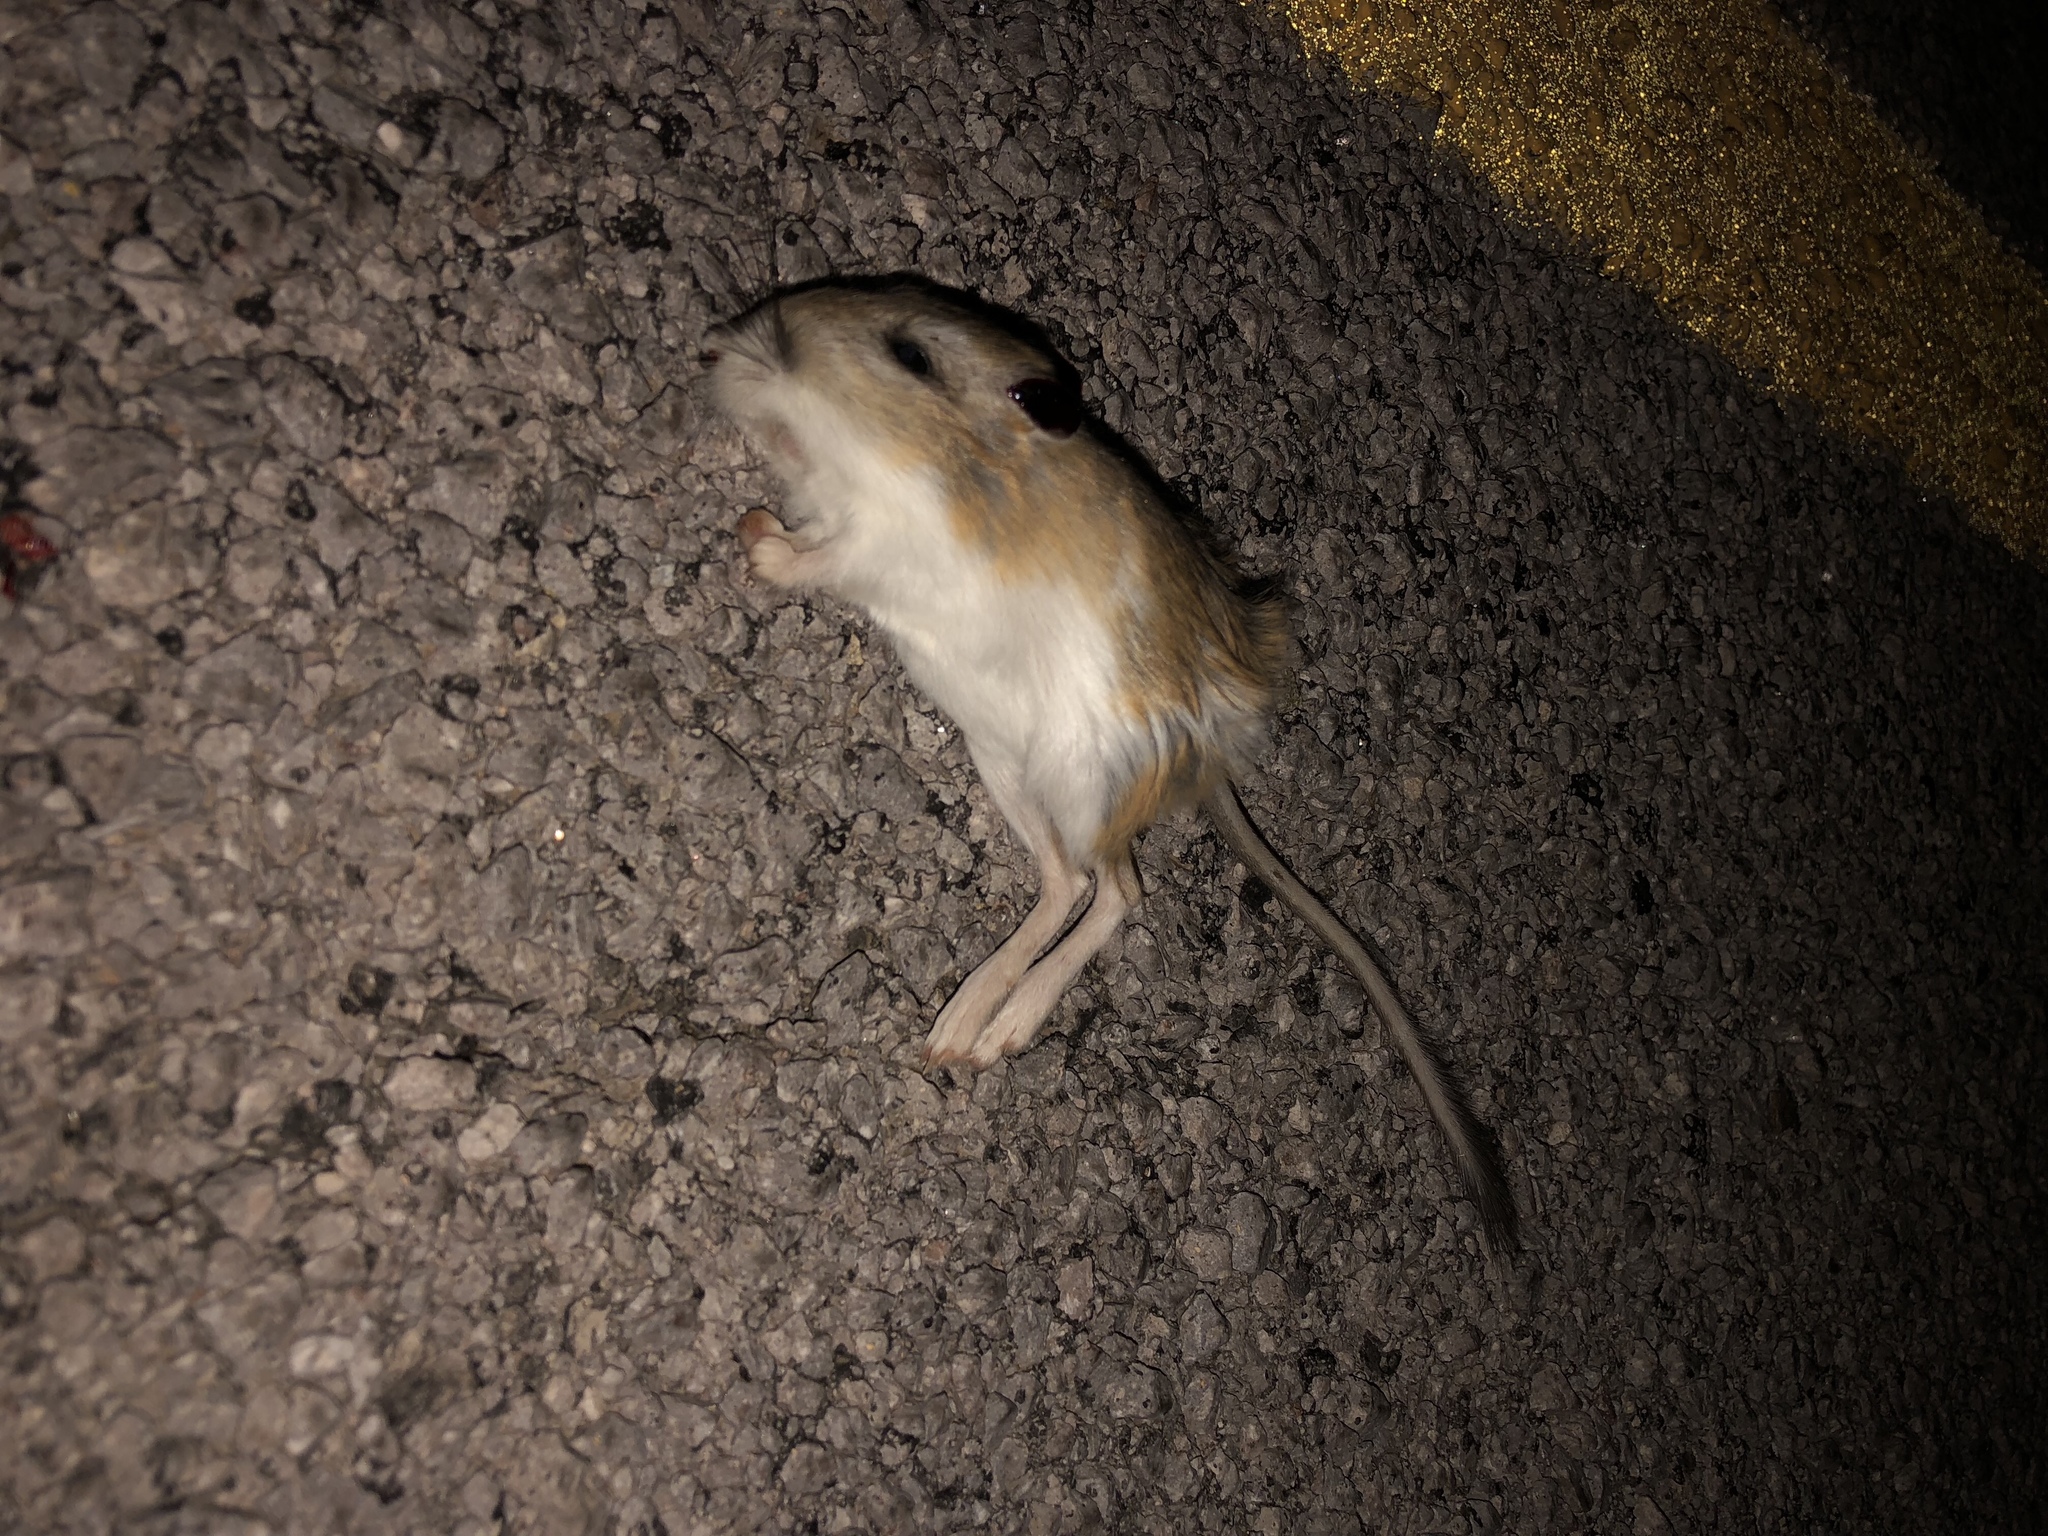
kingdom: Animalia
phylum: Chordata
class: Mammalia
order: Rodentia
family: Heteromyidae
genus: Dipodomys
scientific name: Dipodomys merriami
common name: Merriam's kangaroo rat
